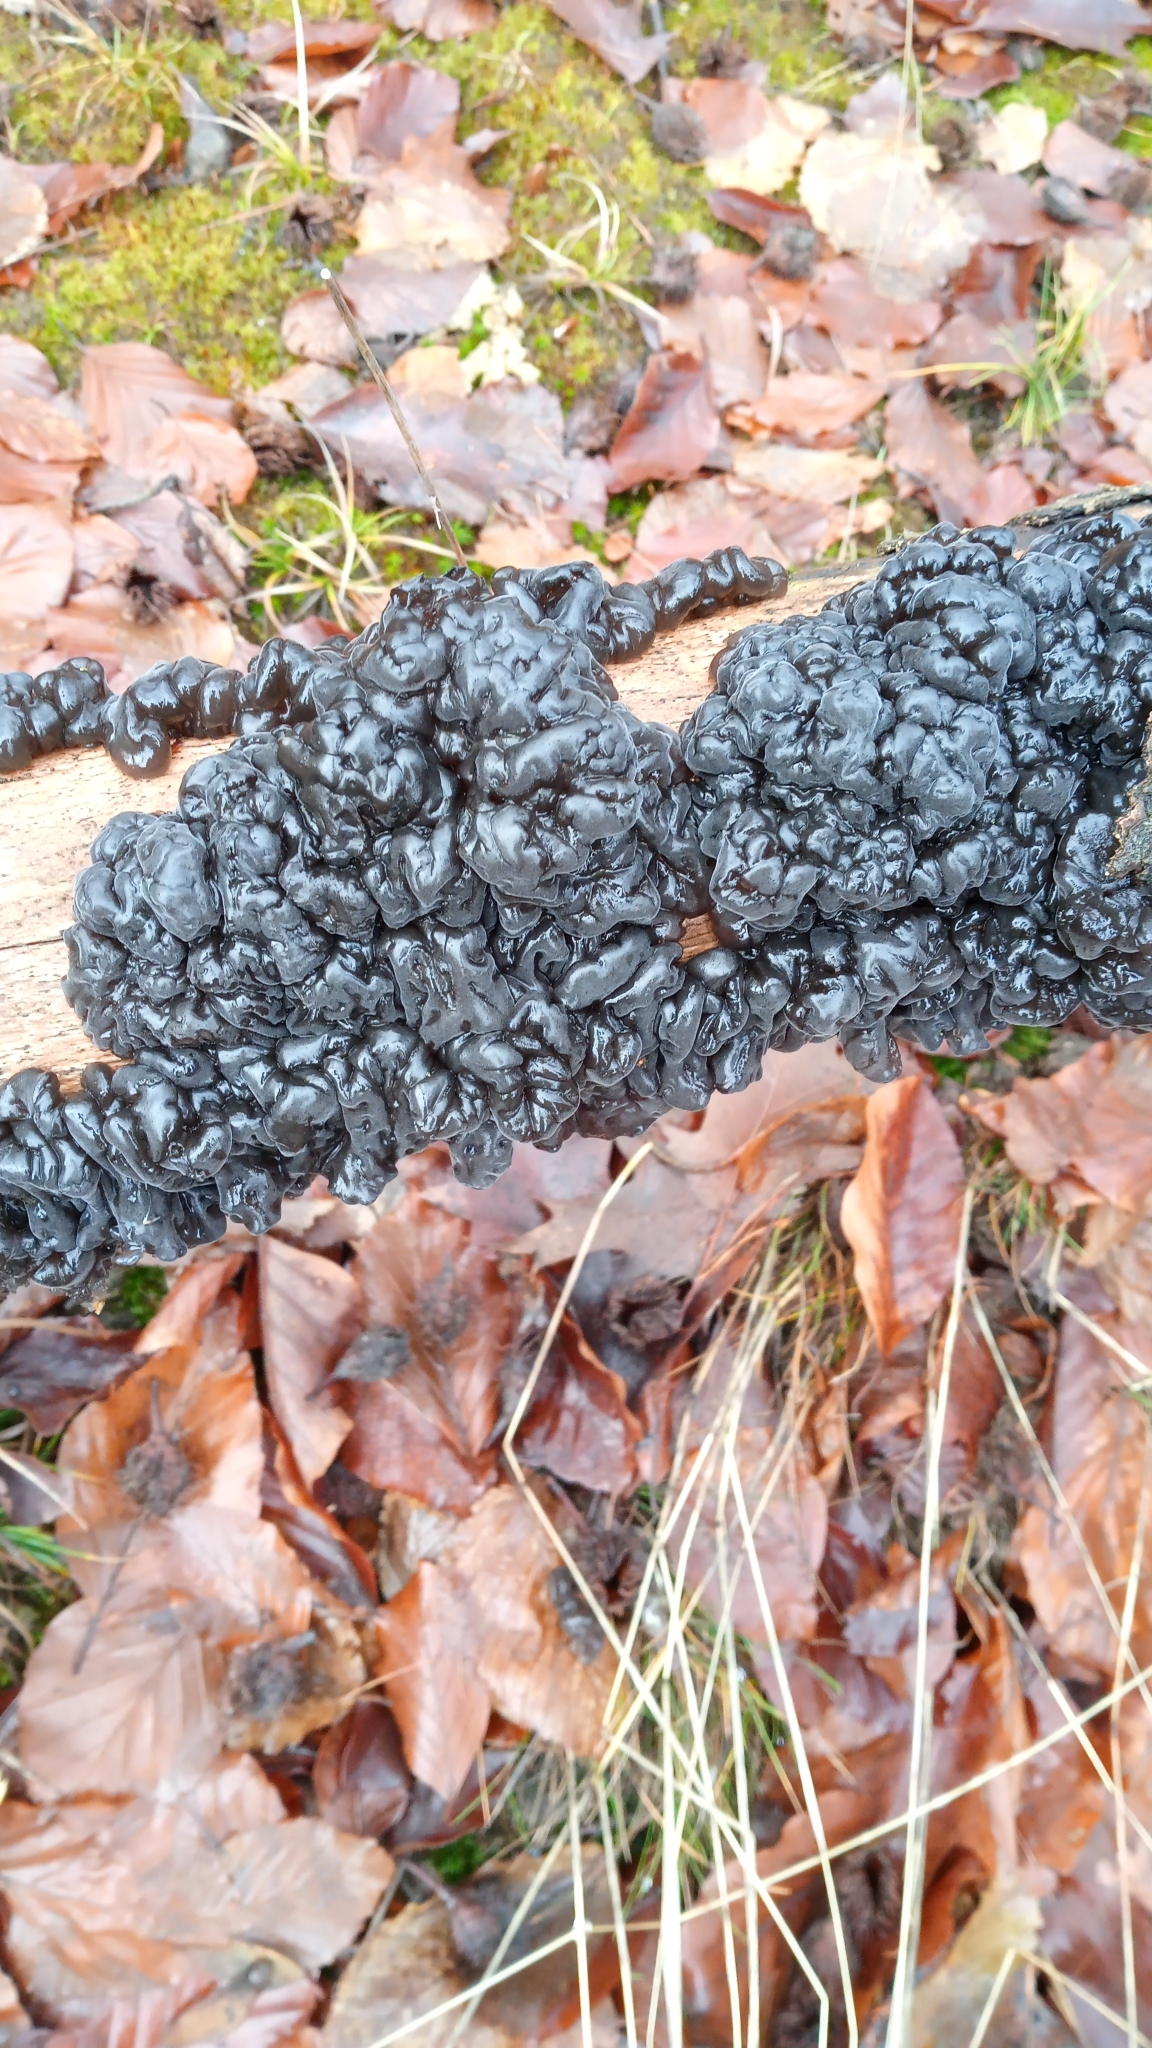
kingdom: Fungi
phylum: Basidiomycota
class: Agaricomycetes
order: Auriculariales
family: Auriculariaceae
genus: Exidia
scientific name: Exidia nigricans
